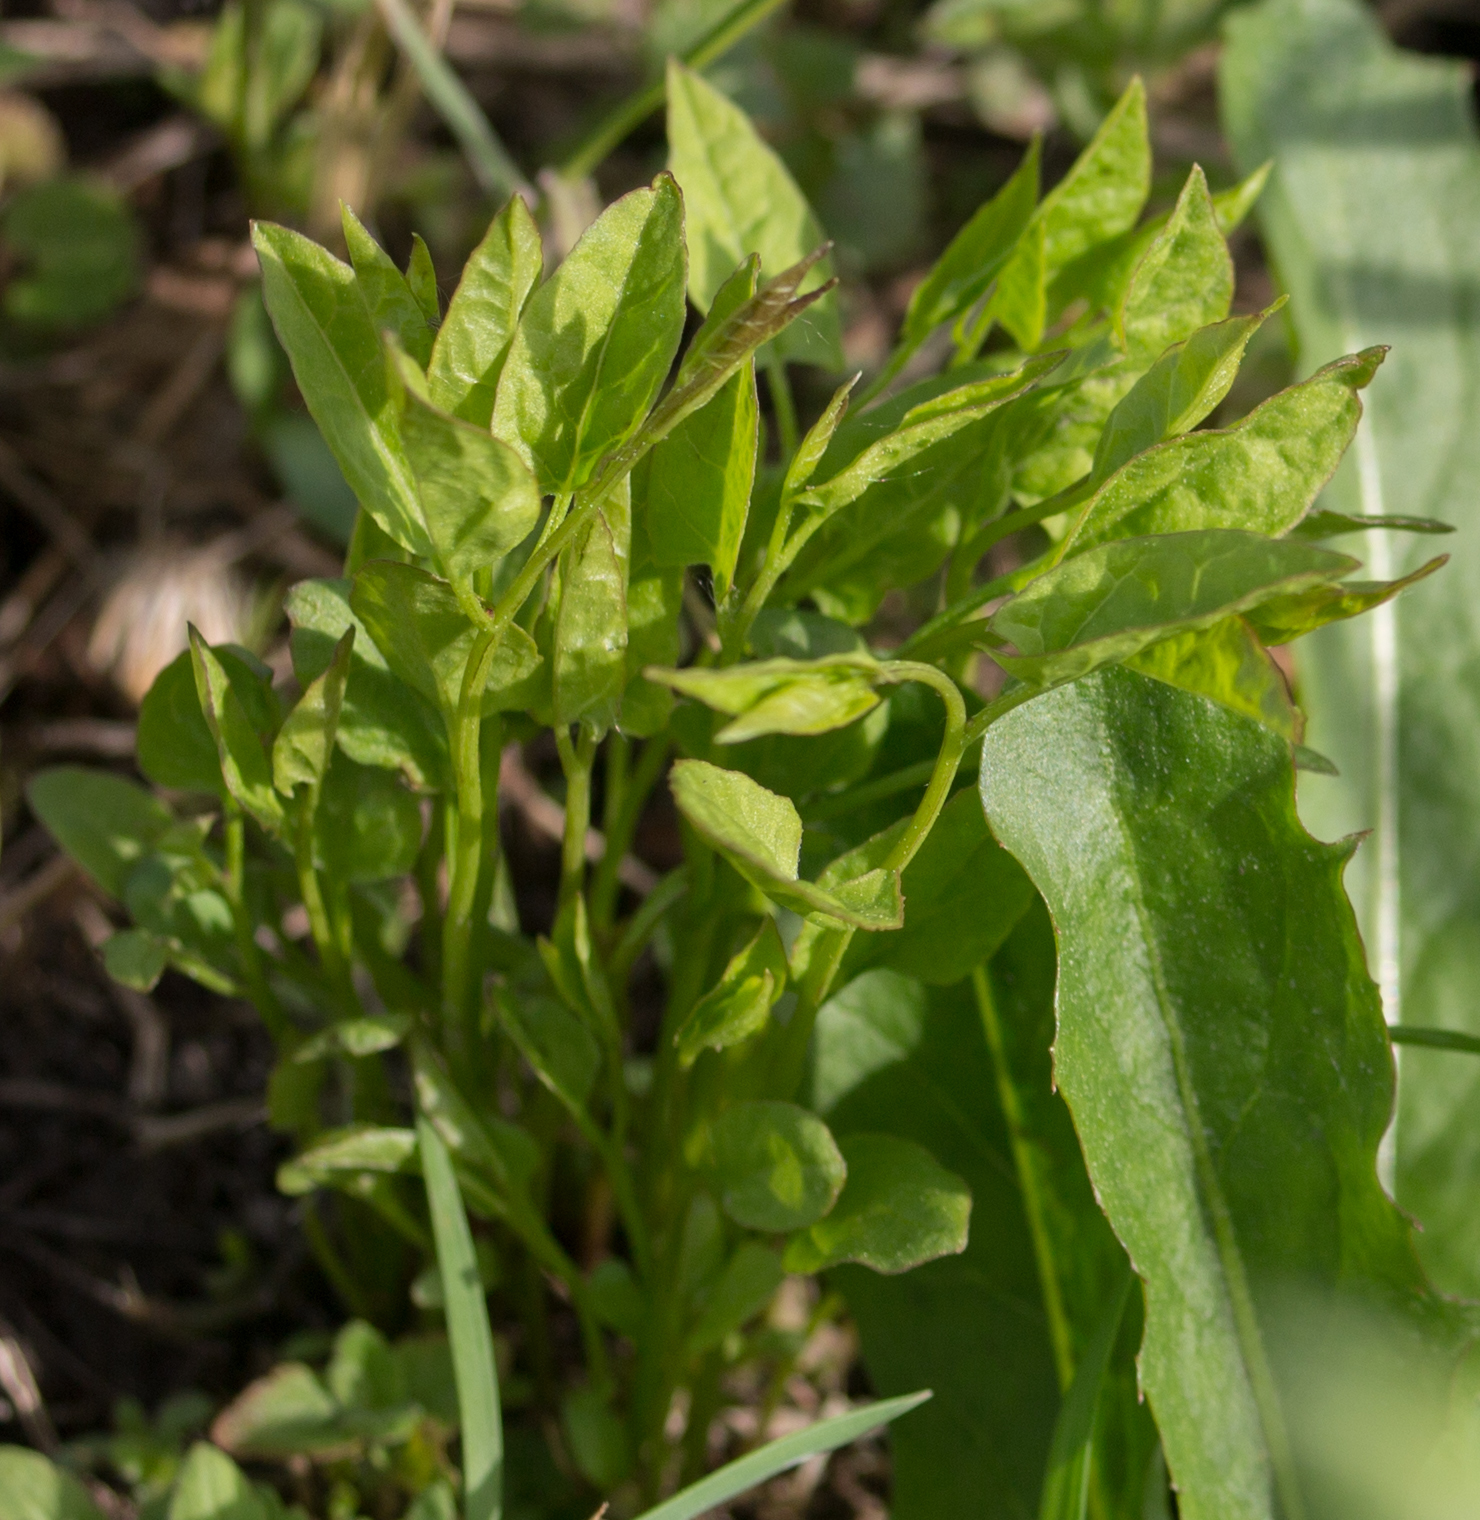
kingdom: Plantae
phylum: Tracheophyta
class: Magnoliopsida
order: Solanales
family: Convolvulaceae
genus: Convolvulus
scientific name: Convolvulus arvensis
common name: Field bindweed
